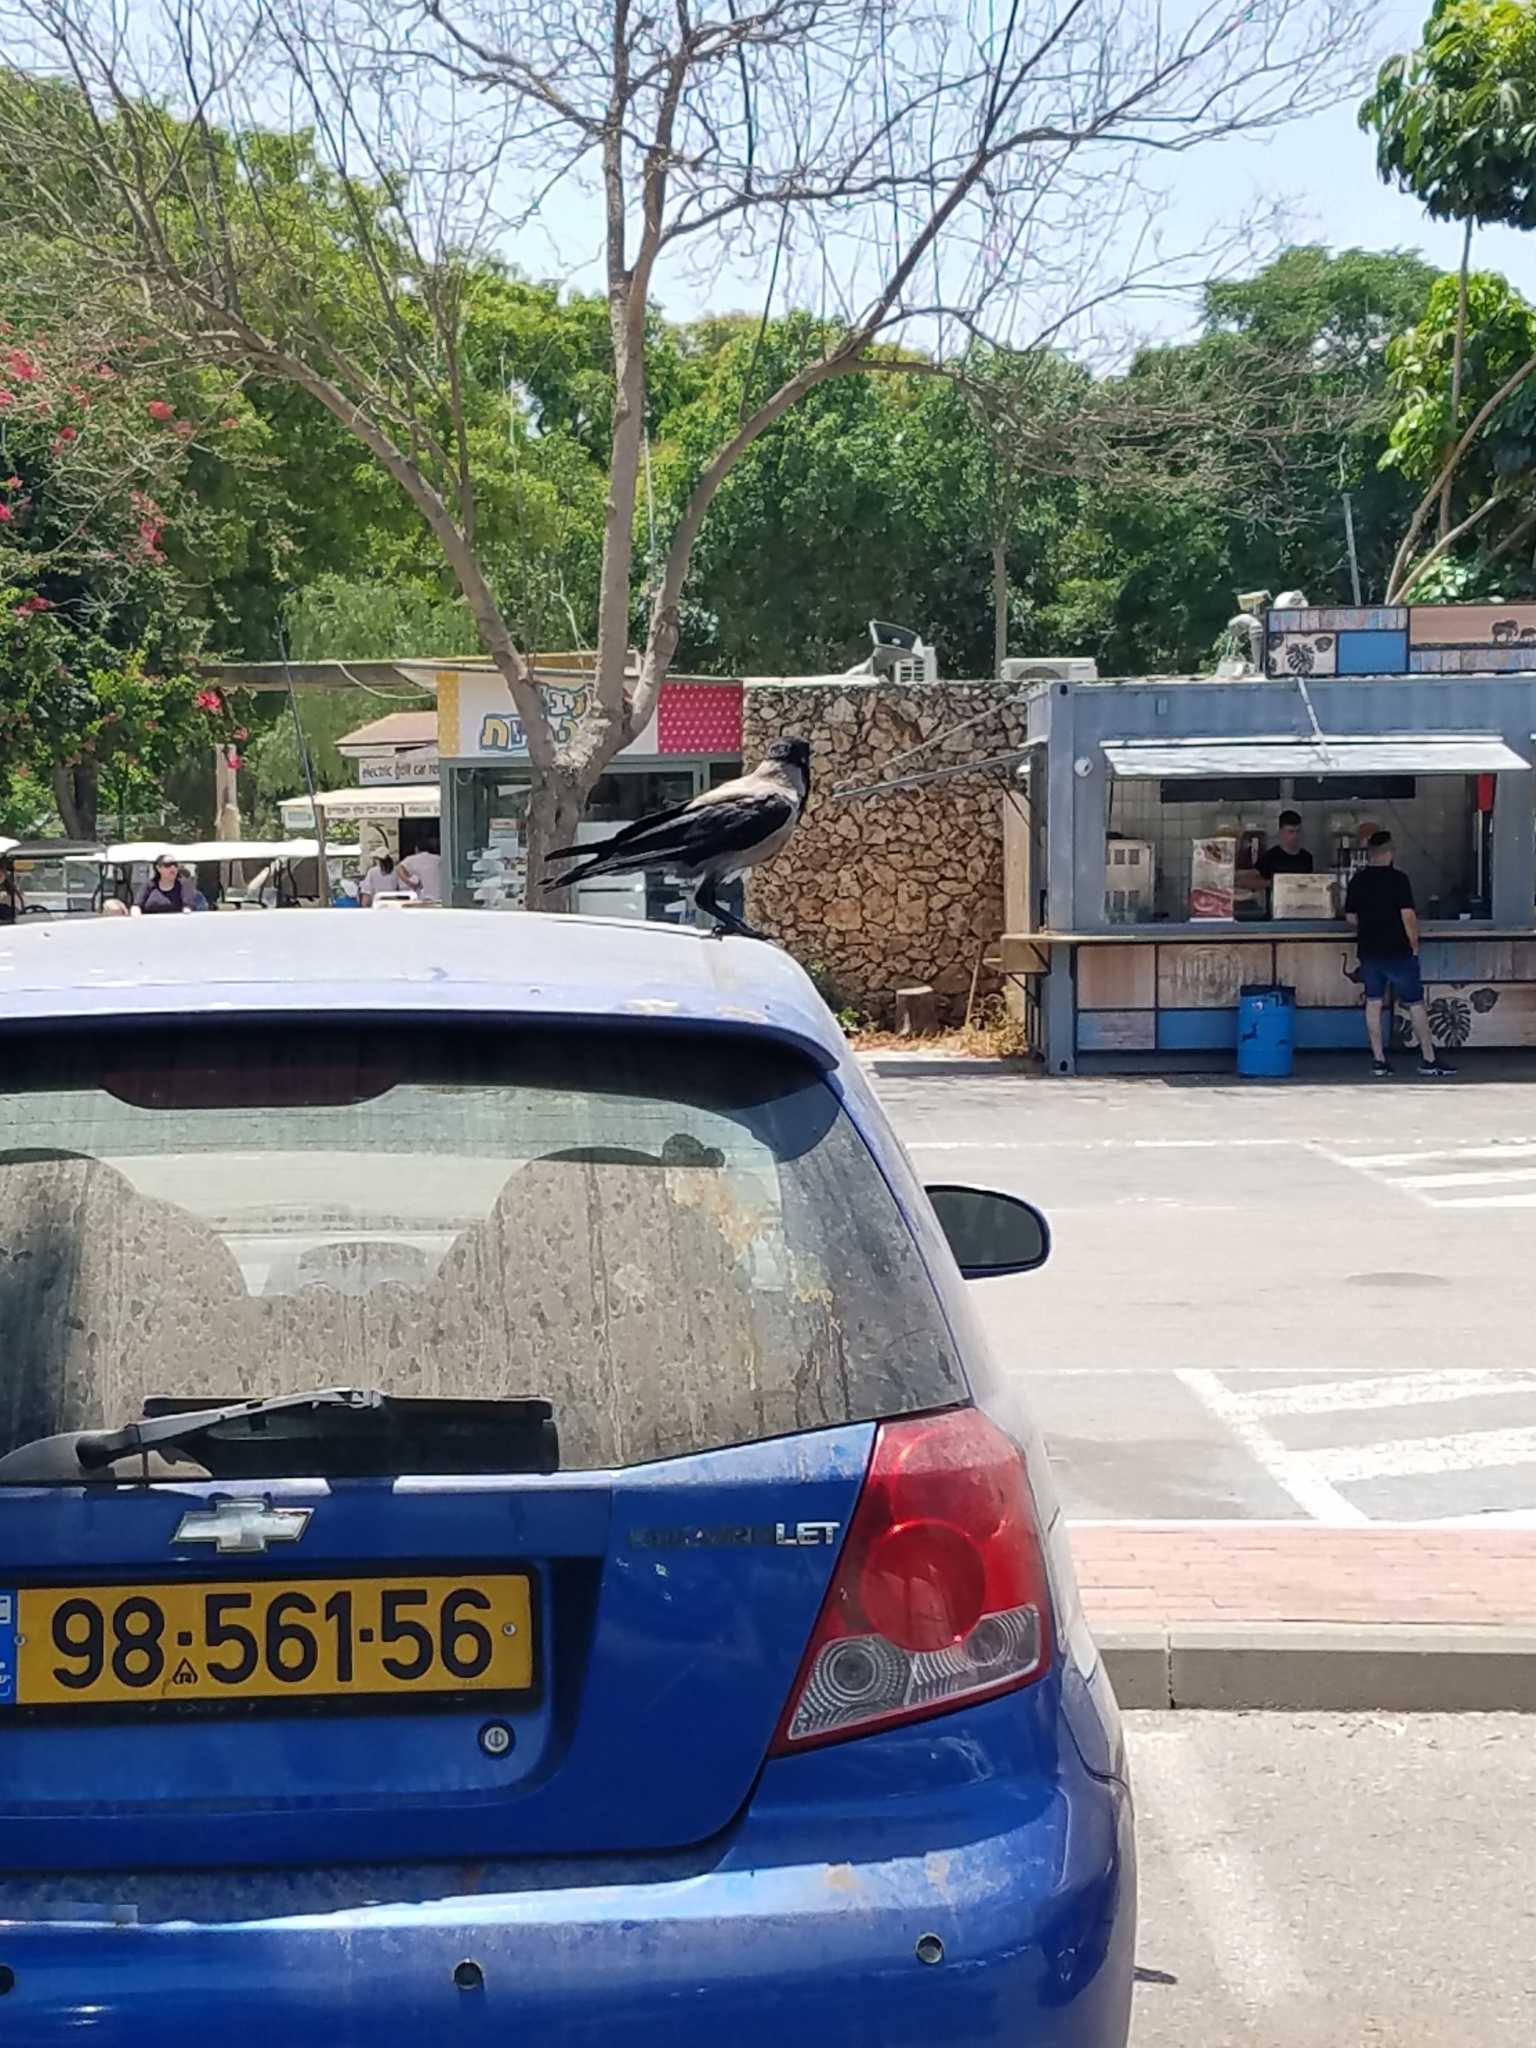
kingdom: Animalia
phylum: Chordata
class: Aves
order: Passeriformes
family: Corvidae
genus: Corvus
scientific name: Corvus cornix
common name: Hooded crow
